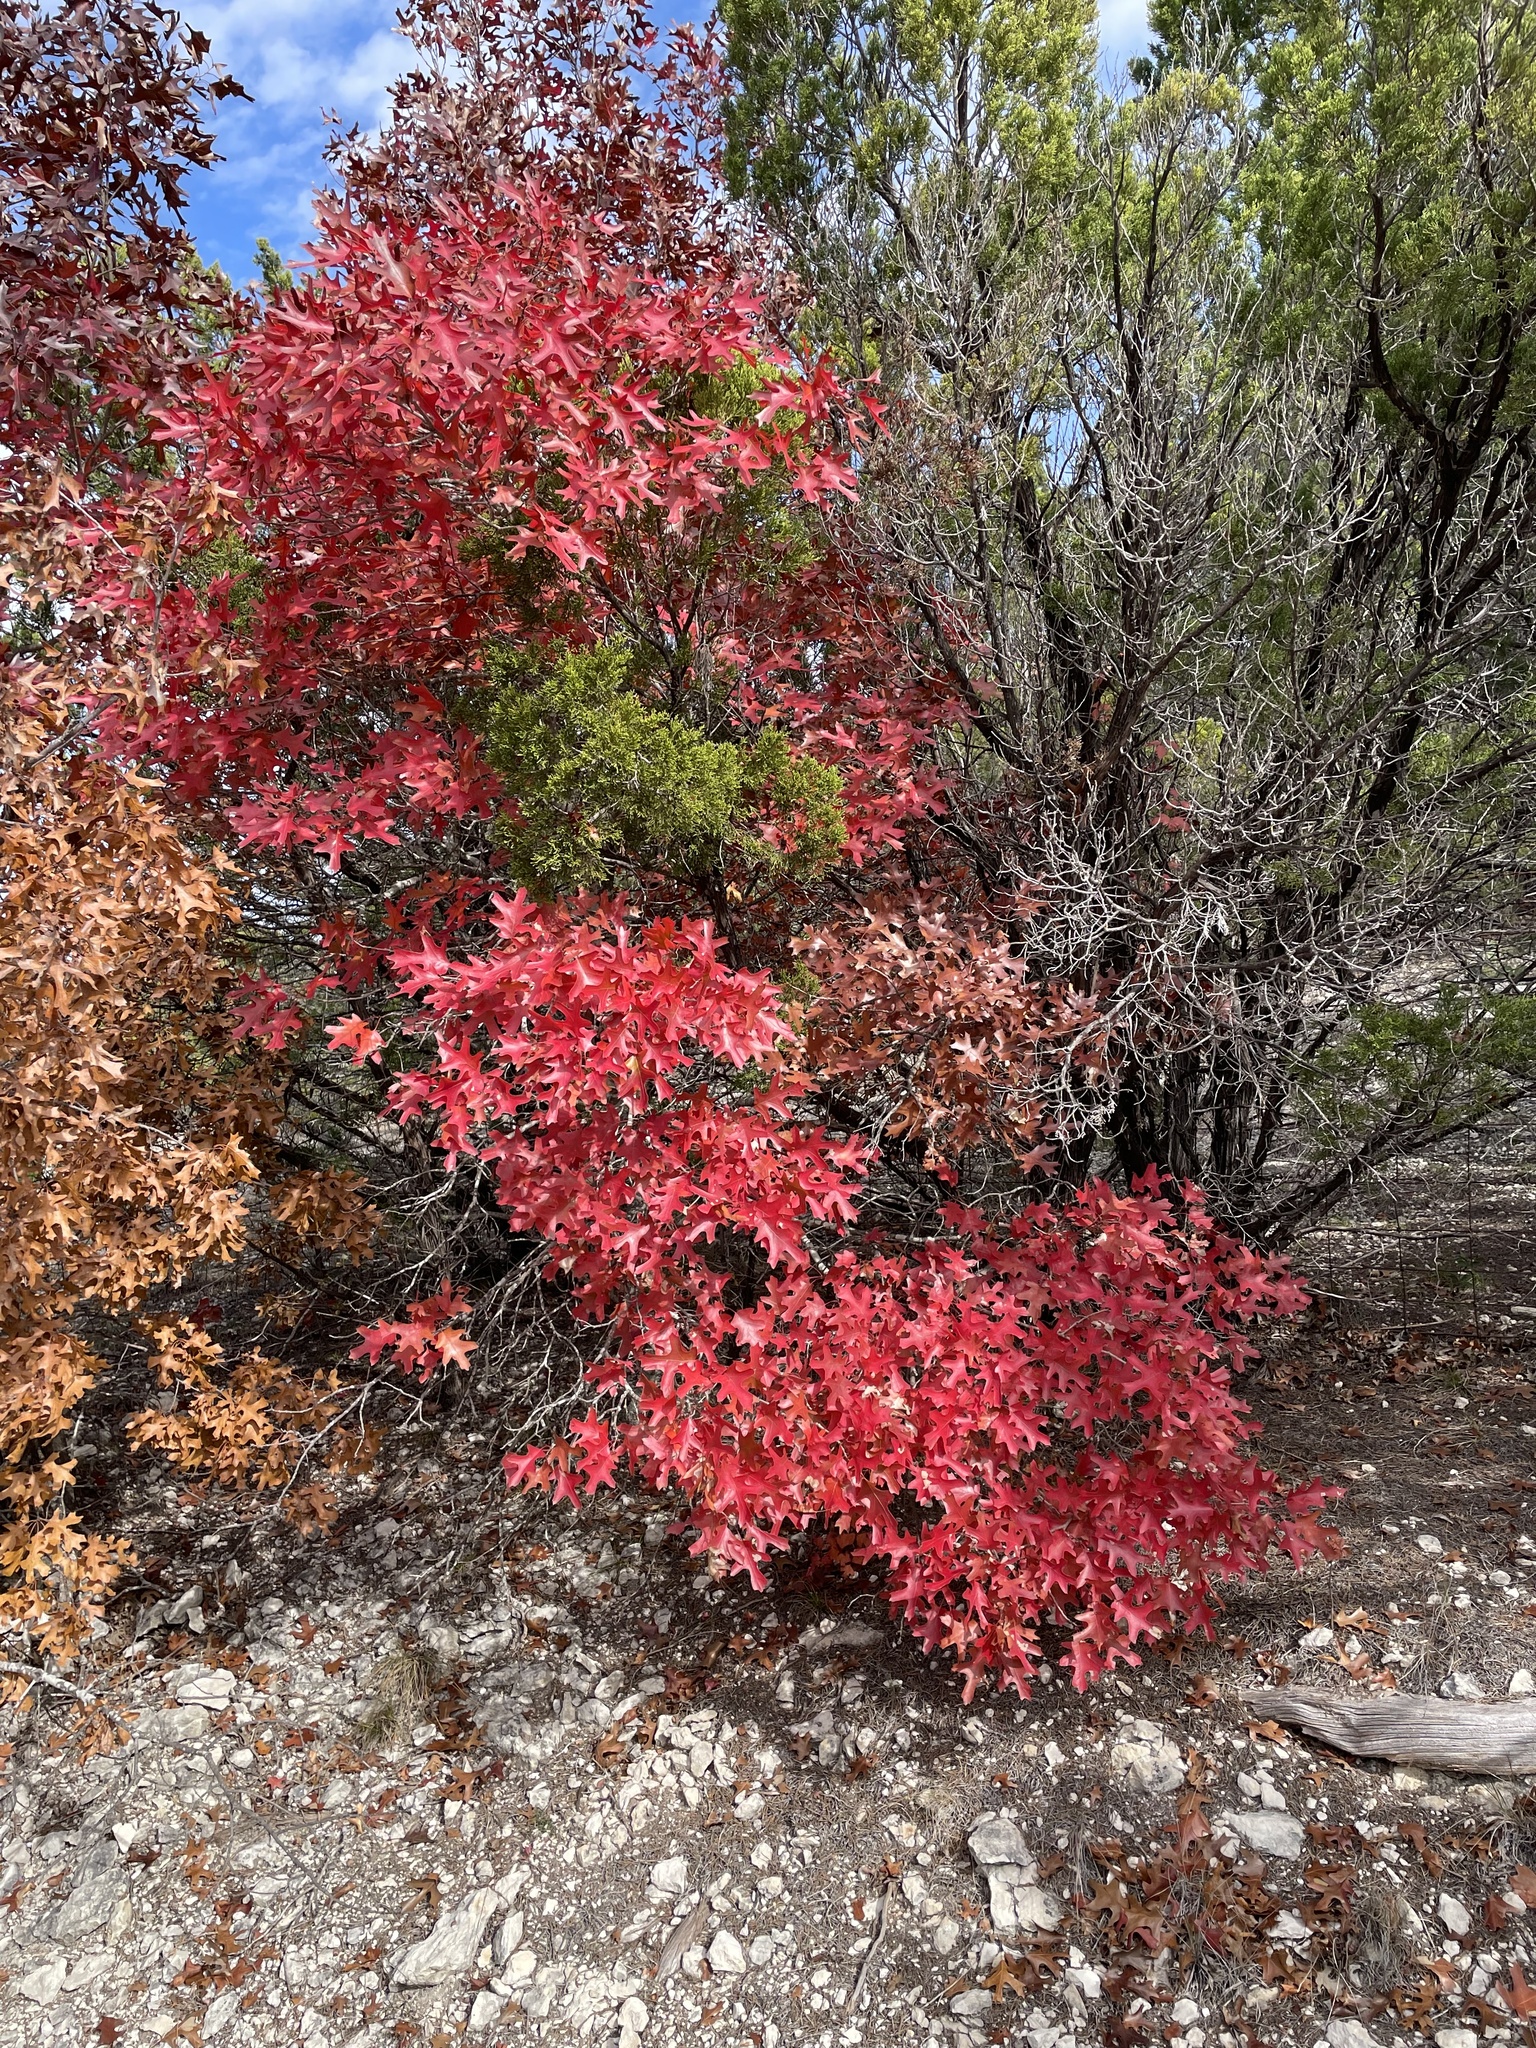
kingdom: Plantae
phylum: Tracheophyta
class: Magnoliopsida
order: Fagales
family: Fagaceae
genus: Quercus
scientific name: Quercus buckleyi
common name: Buckley oak
